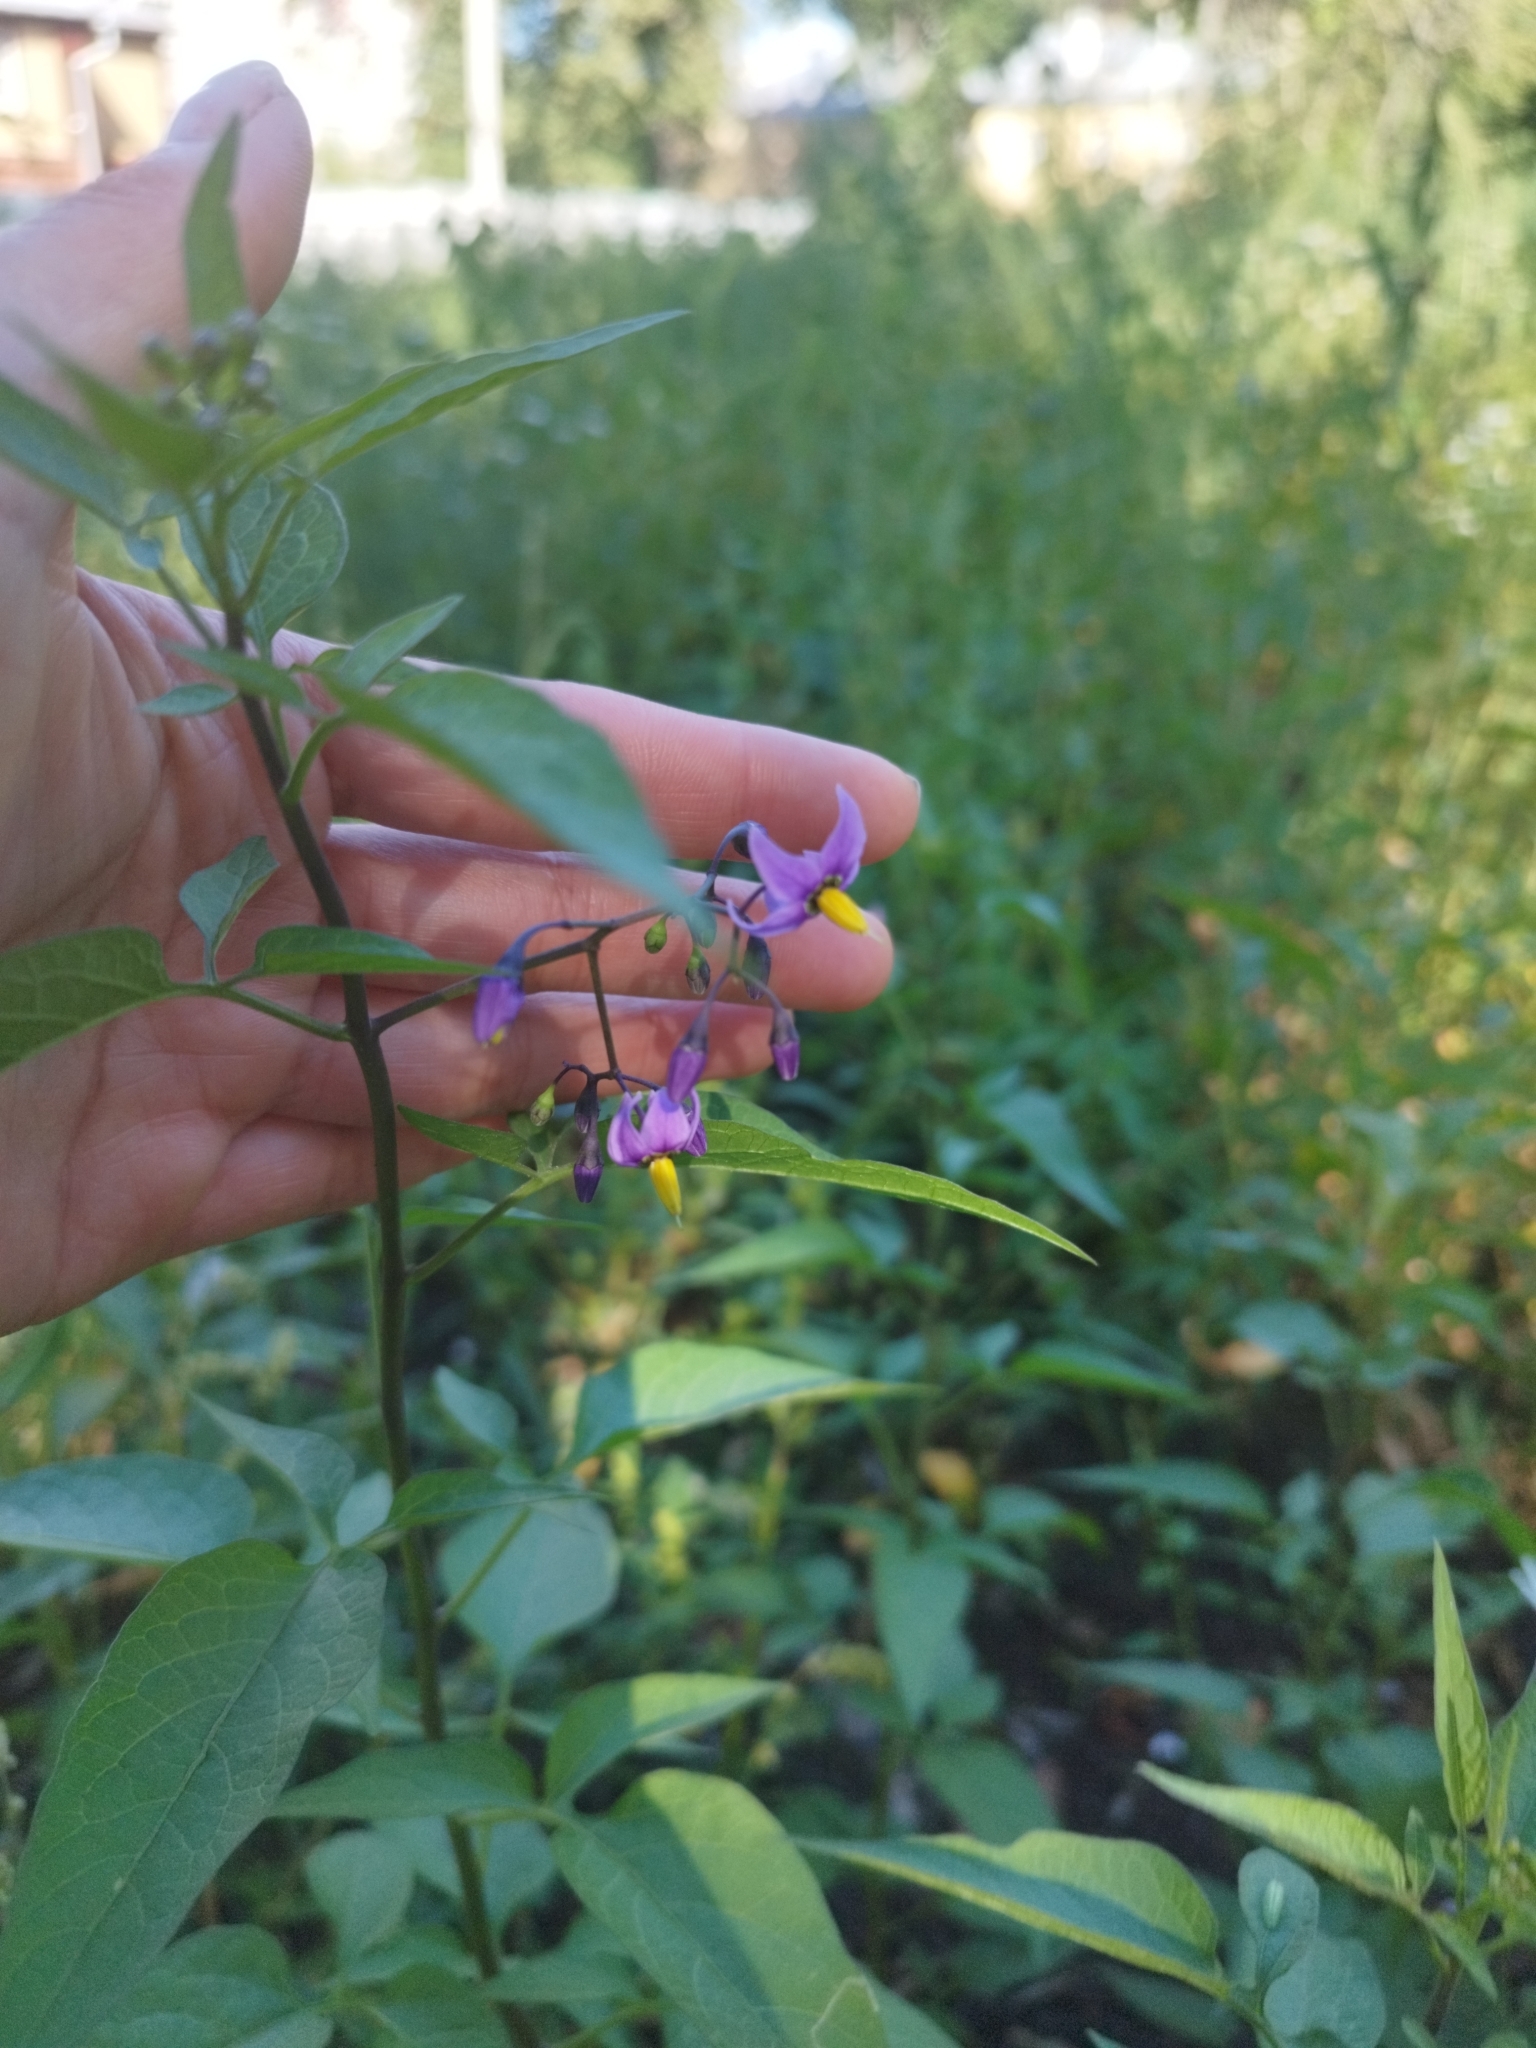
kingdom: Plantae
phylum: Tracheophyta
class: Magnoliopsida
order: Solanales
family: Solanaceae
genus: Solanum
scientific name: Solanum dulcamara
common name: Climbing nightshade
